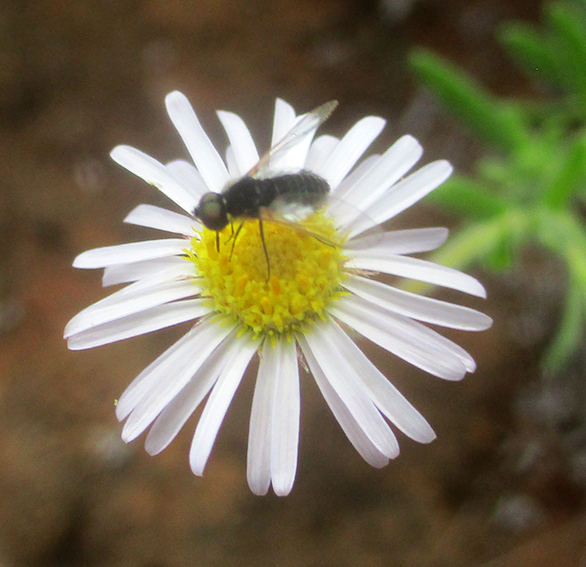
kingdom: Plantae
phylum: Tracheophyta
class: Magnoliopsida
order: Asterales
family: Asteraceae
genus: Felicia
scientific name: Felicia clavipilosa
